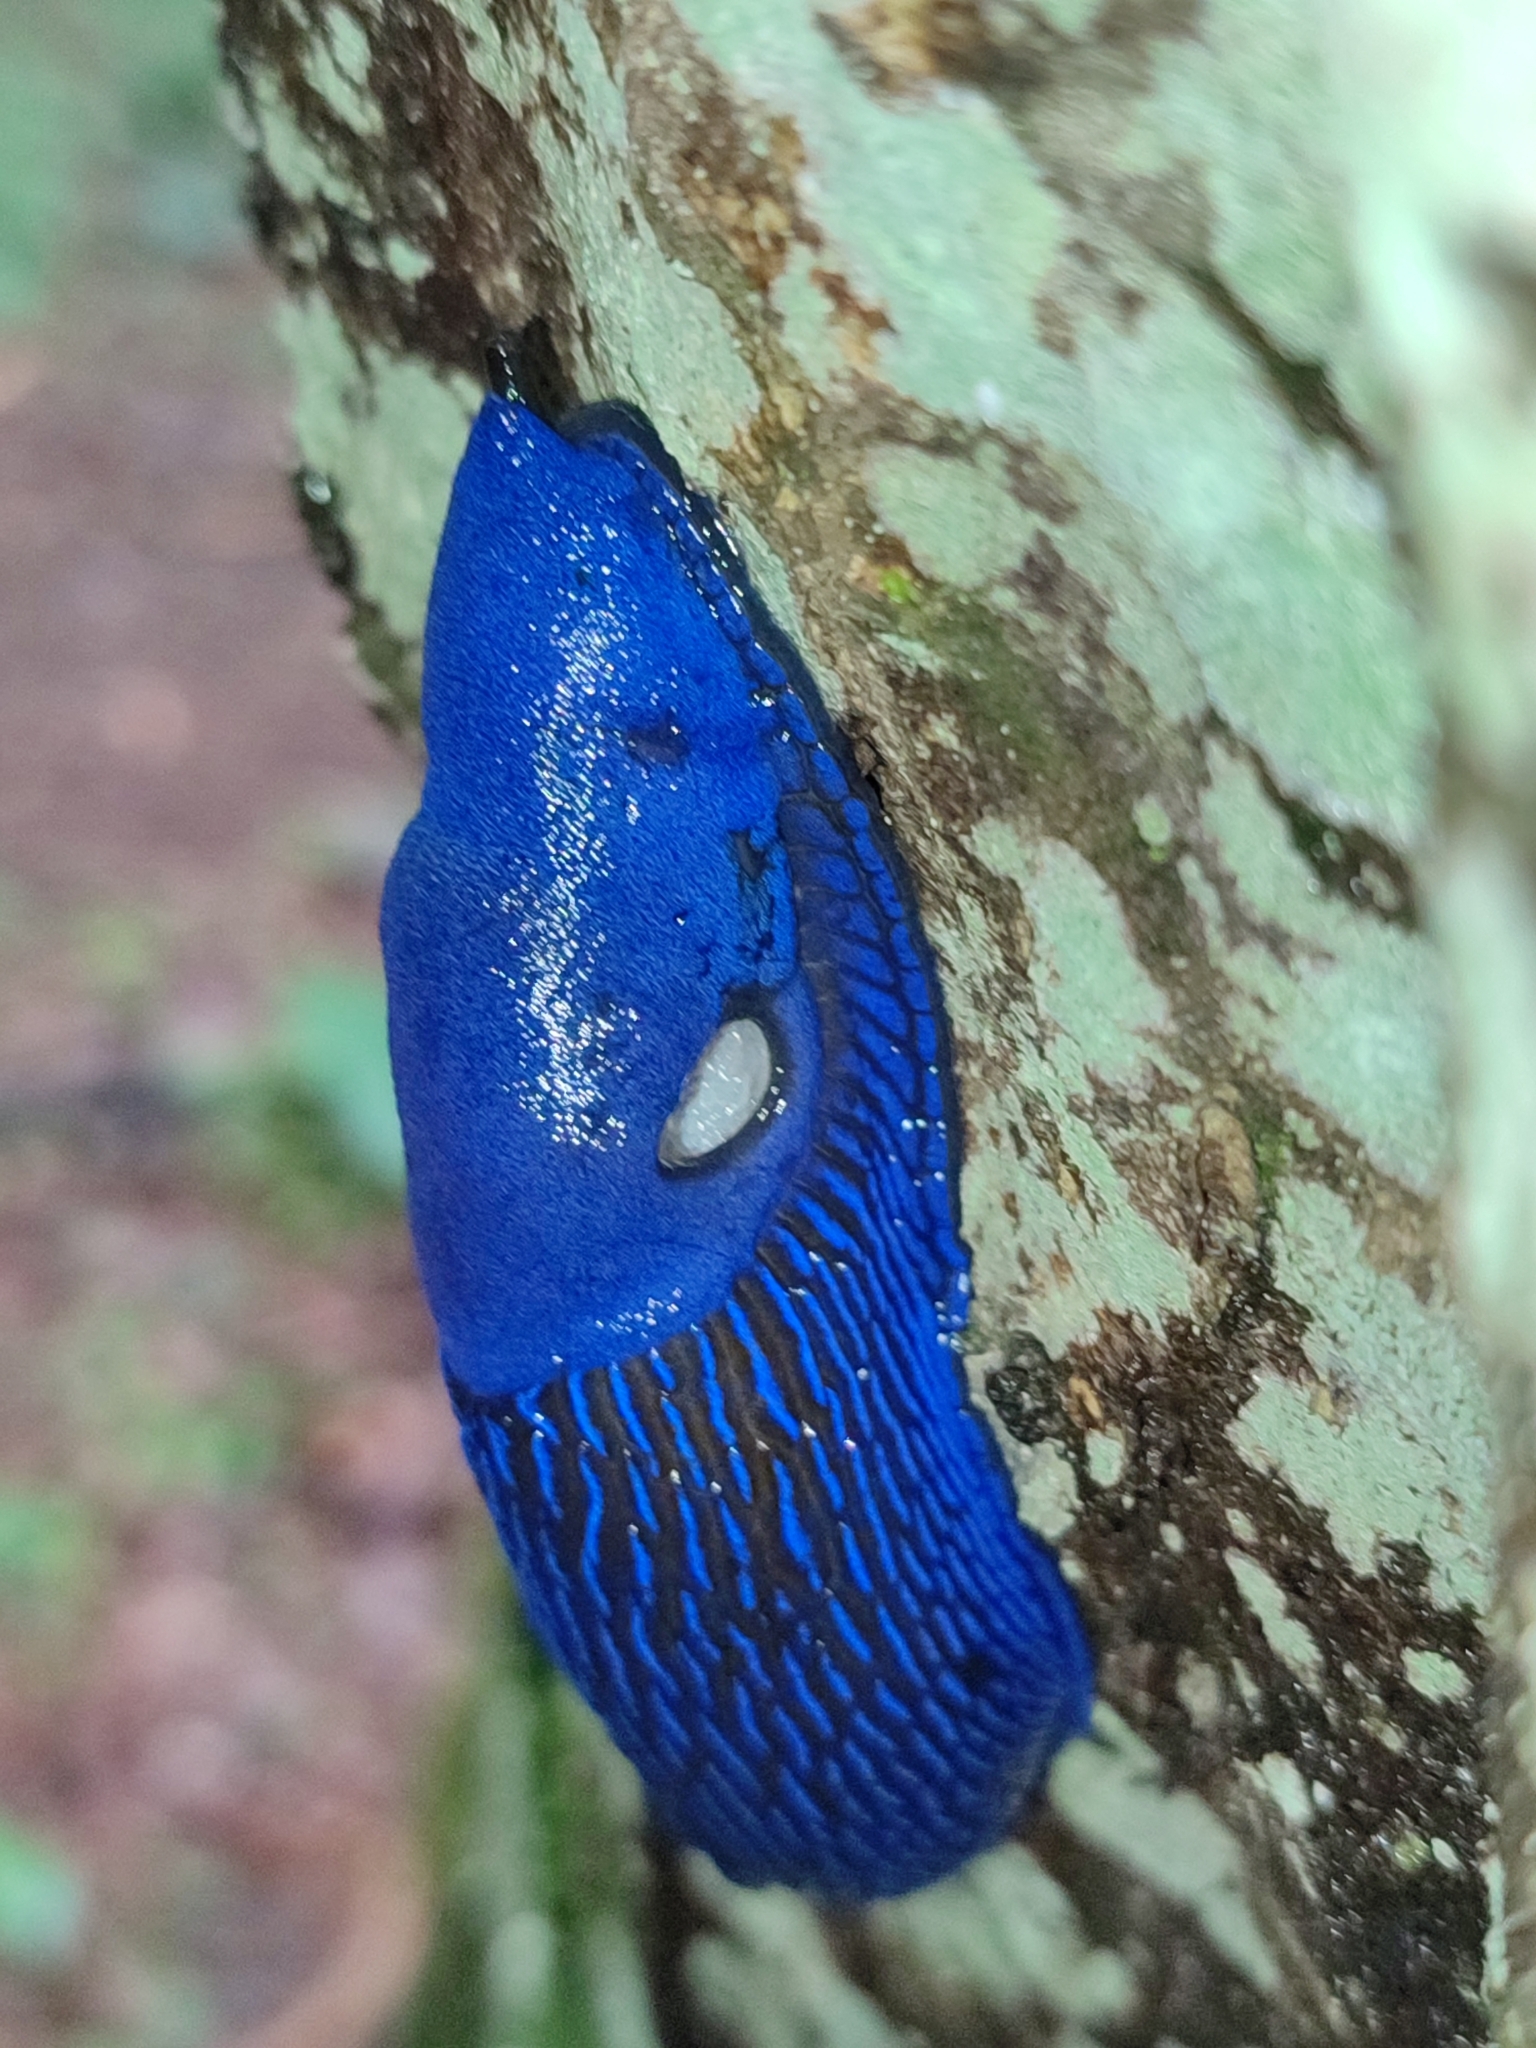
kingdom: Animalia
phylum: Mollusca
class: Gastropoda
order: Stylommatophora
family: Limacidae
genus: Bielzia
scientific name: Bielzia coerulans
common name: Carpathian blue slug
